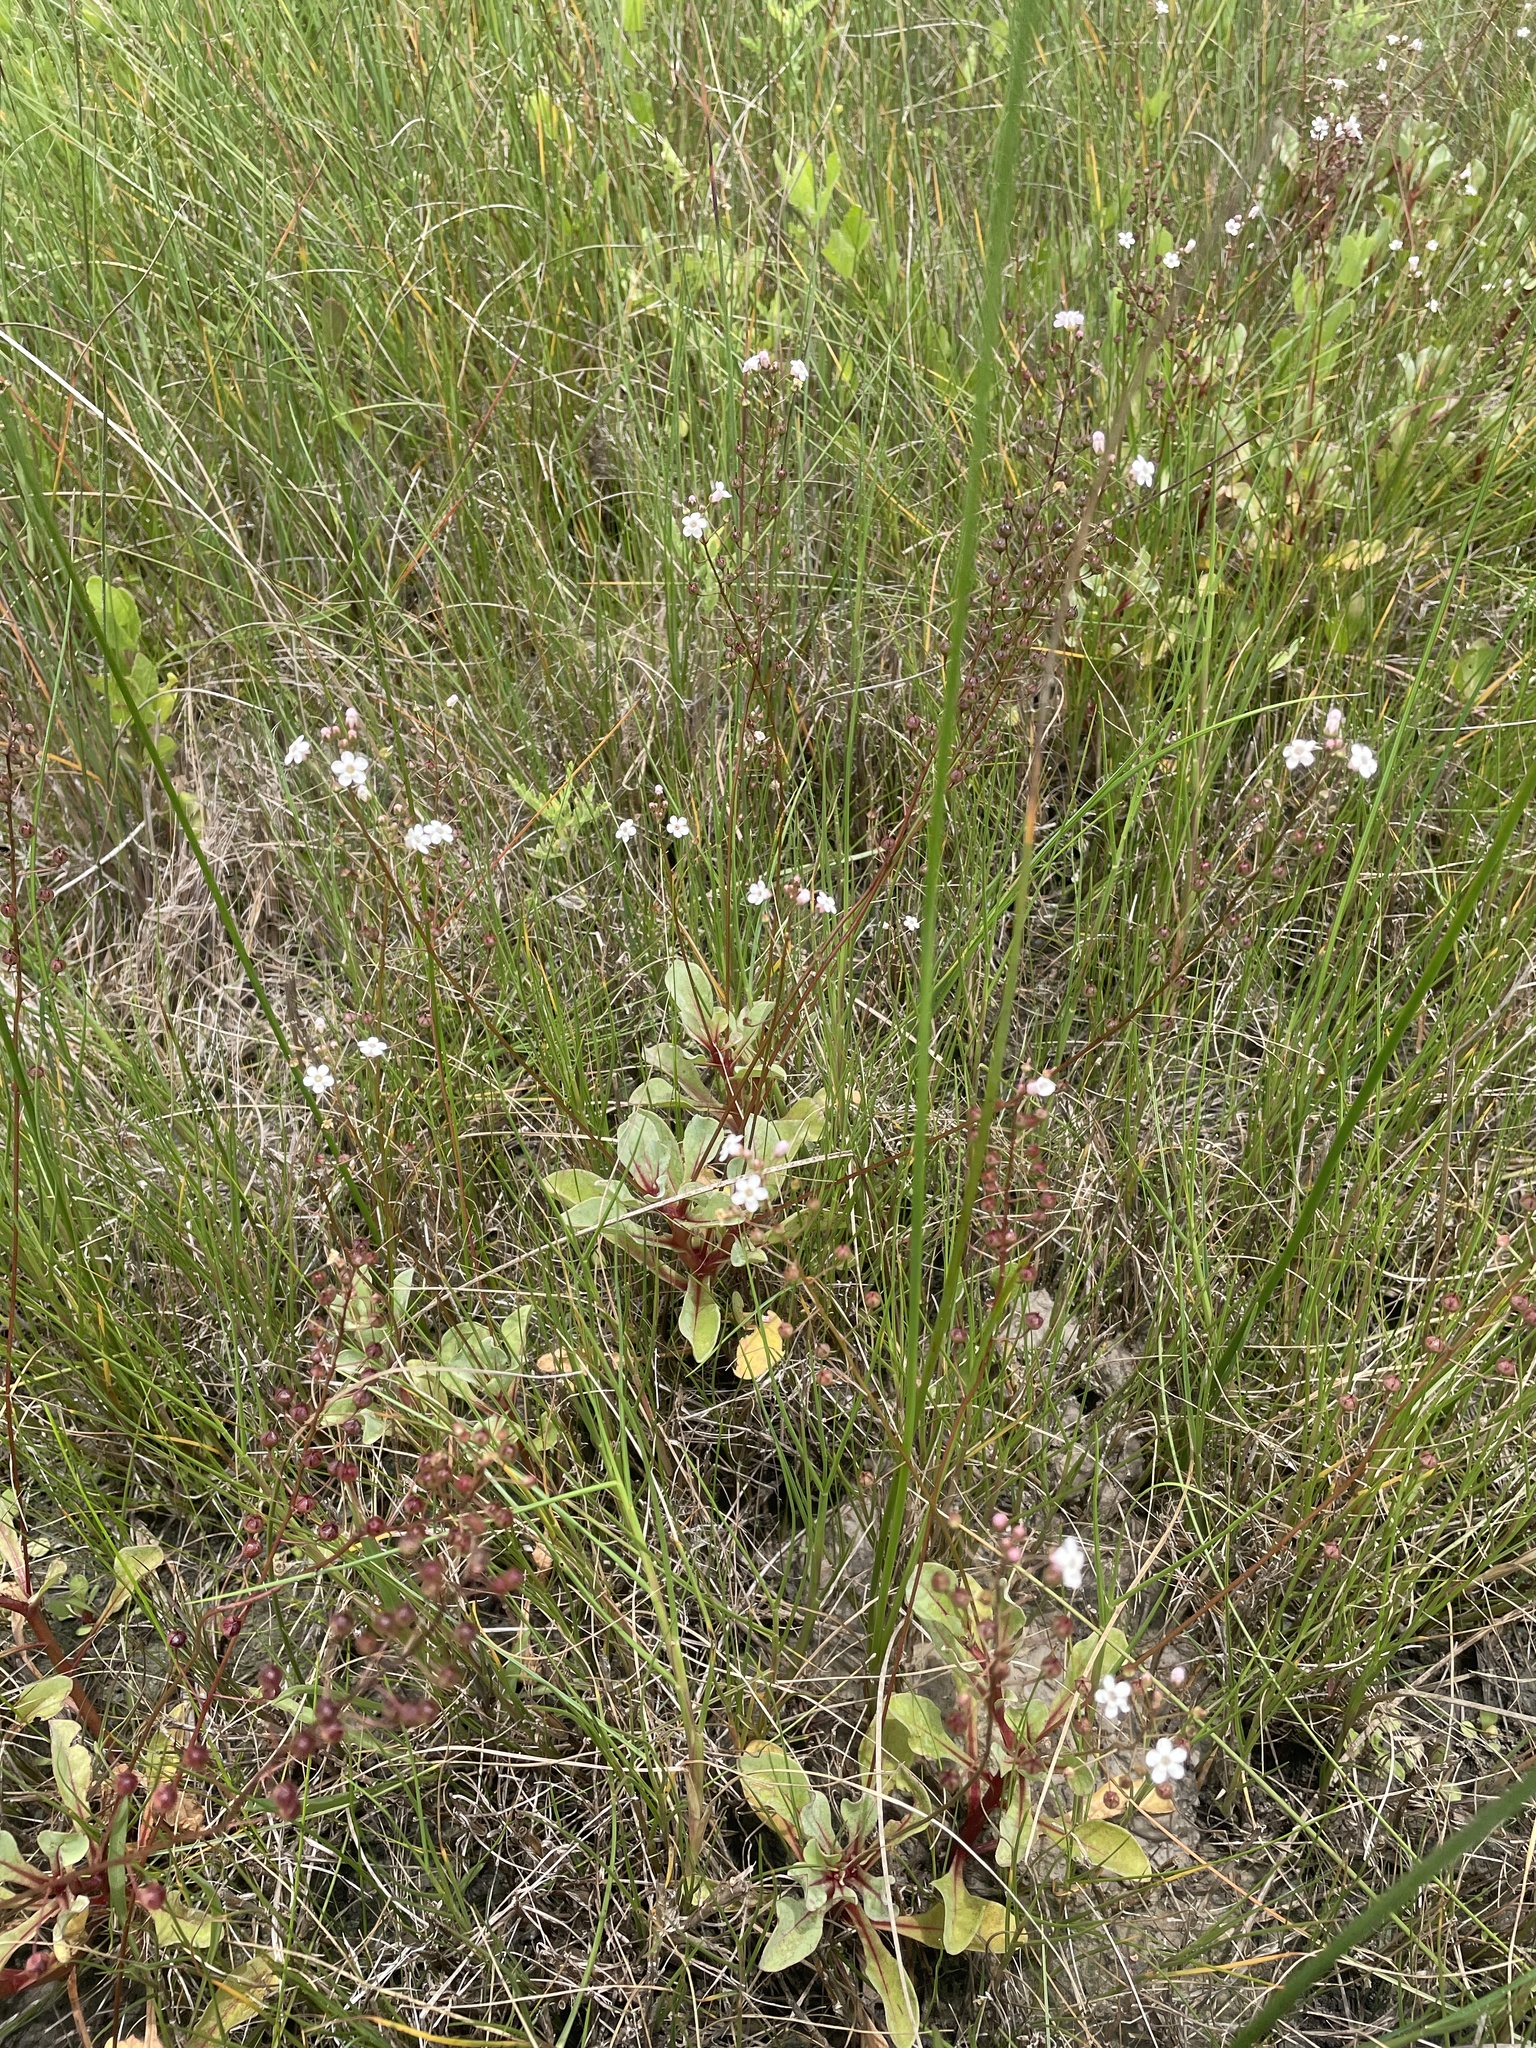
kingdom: Plantae
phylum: Tracheophyta
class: Magnoliopsida
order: Ericales
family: Primulaceae
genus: Samolus
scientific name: Samolus ebracteatus
